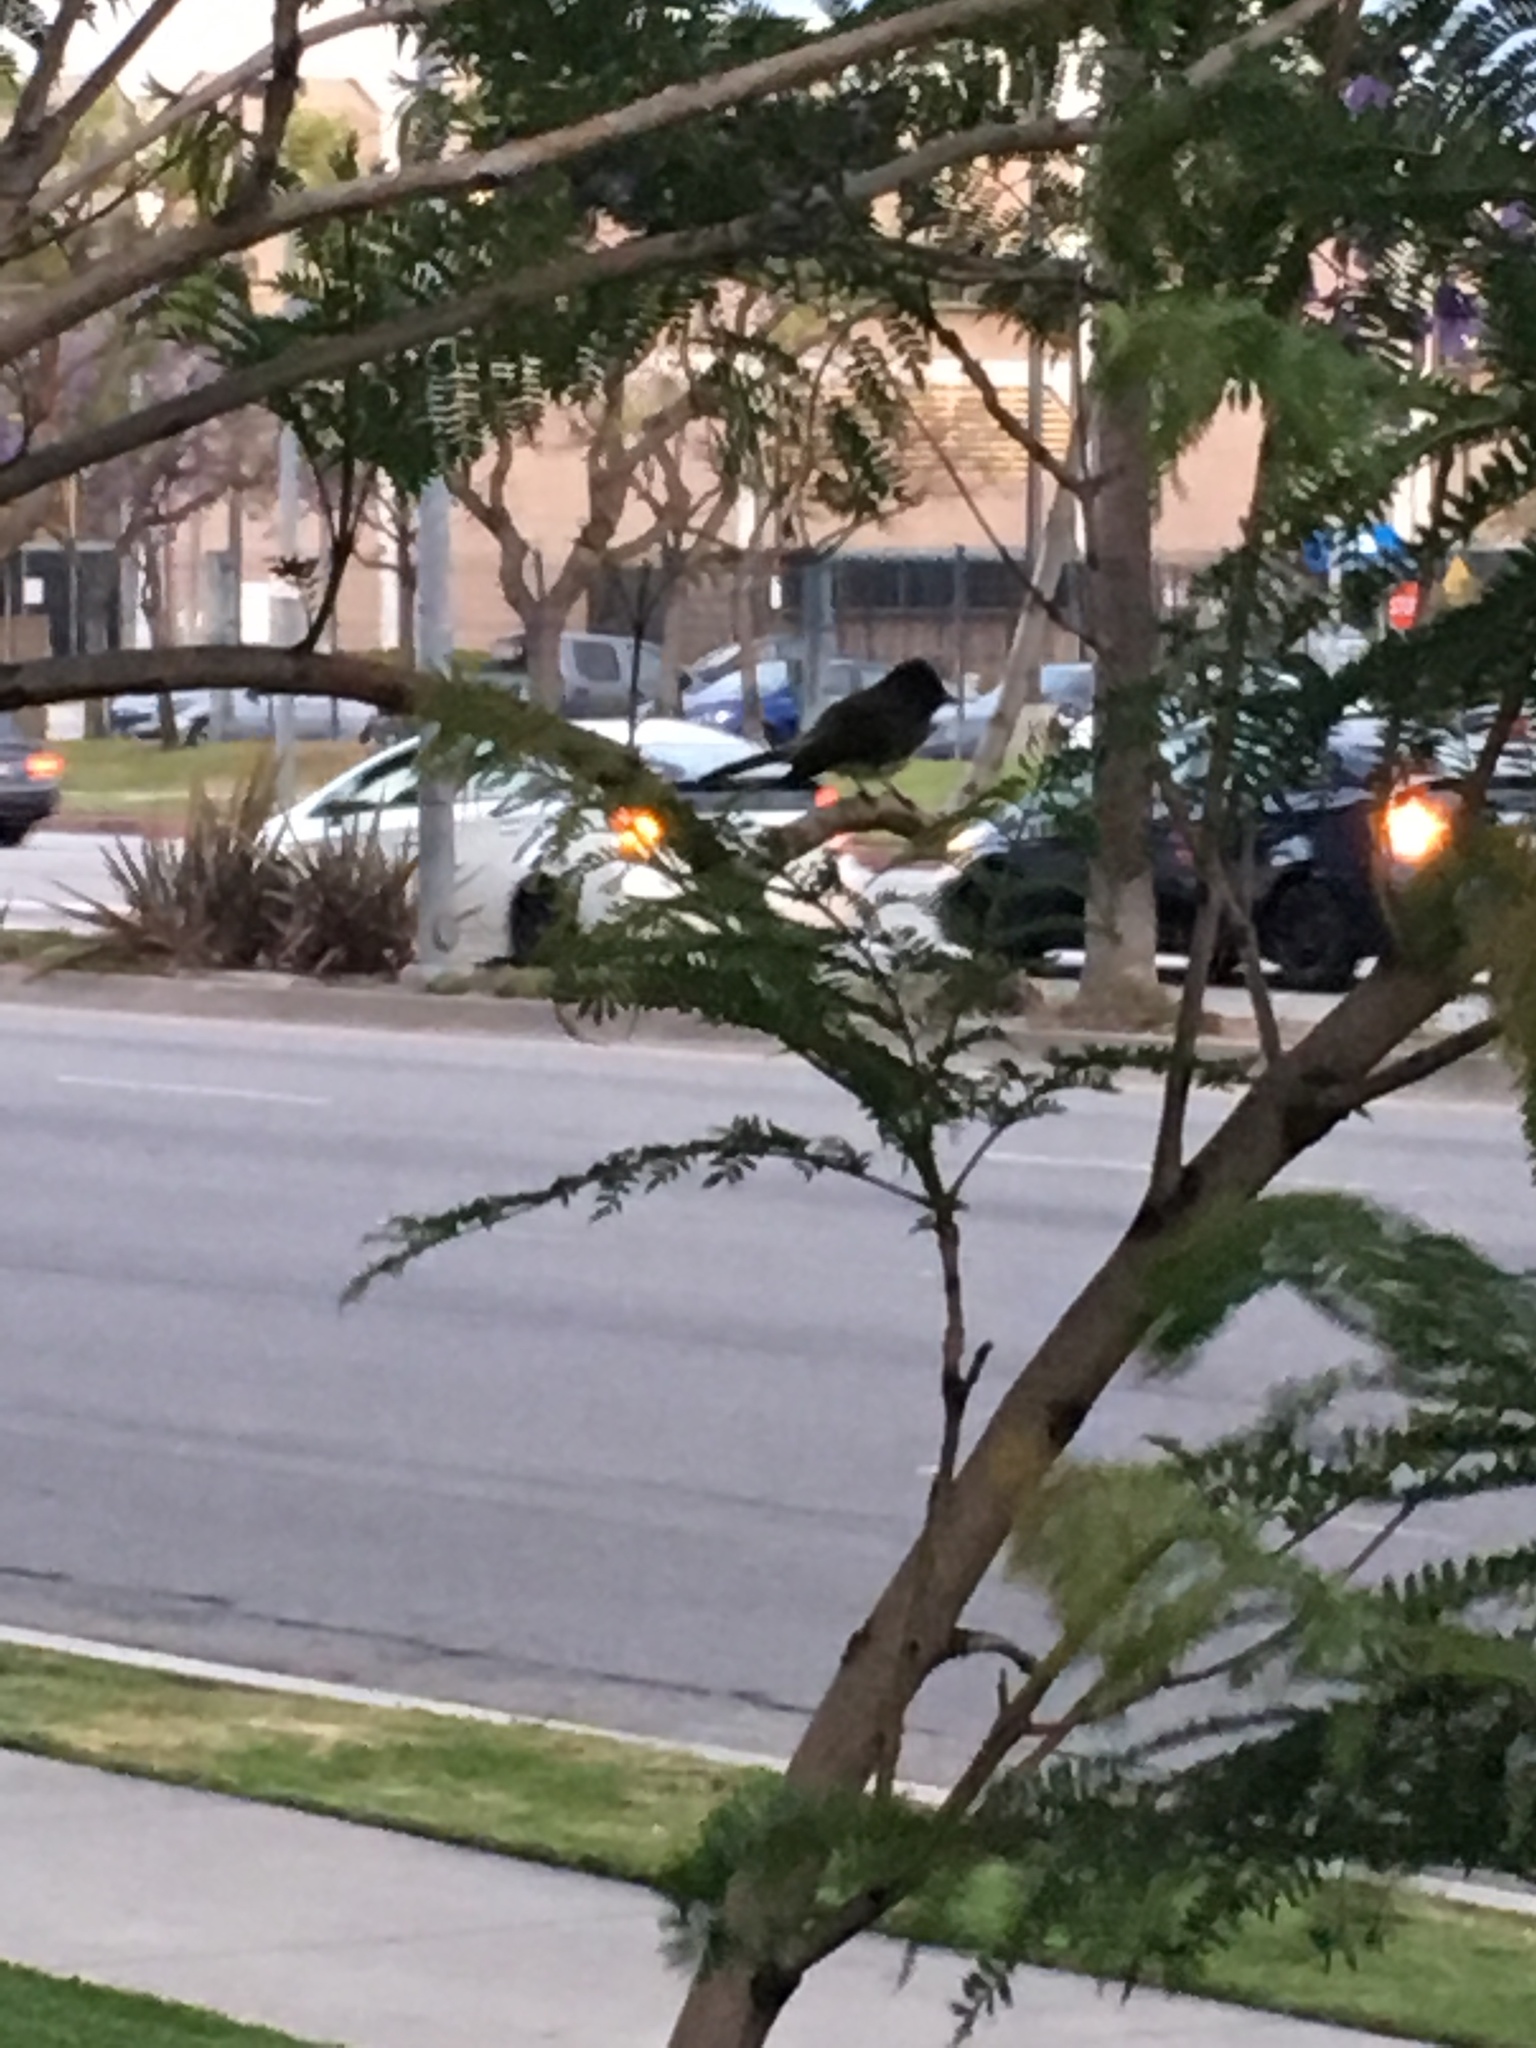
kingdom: Animalia
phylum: Chordata
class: Aves
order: Passeriformes
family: Tyrannidae
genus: Sayornis
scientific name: Sayornis nigricans
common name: Black phoebe
